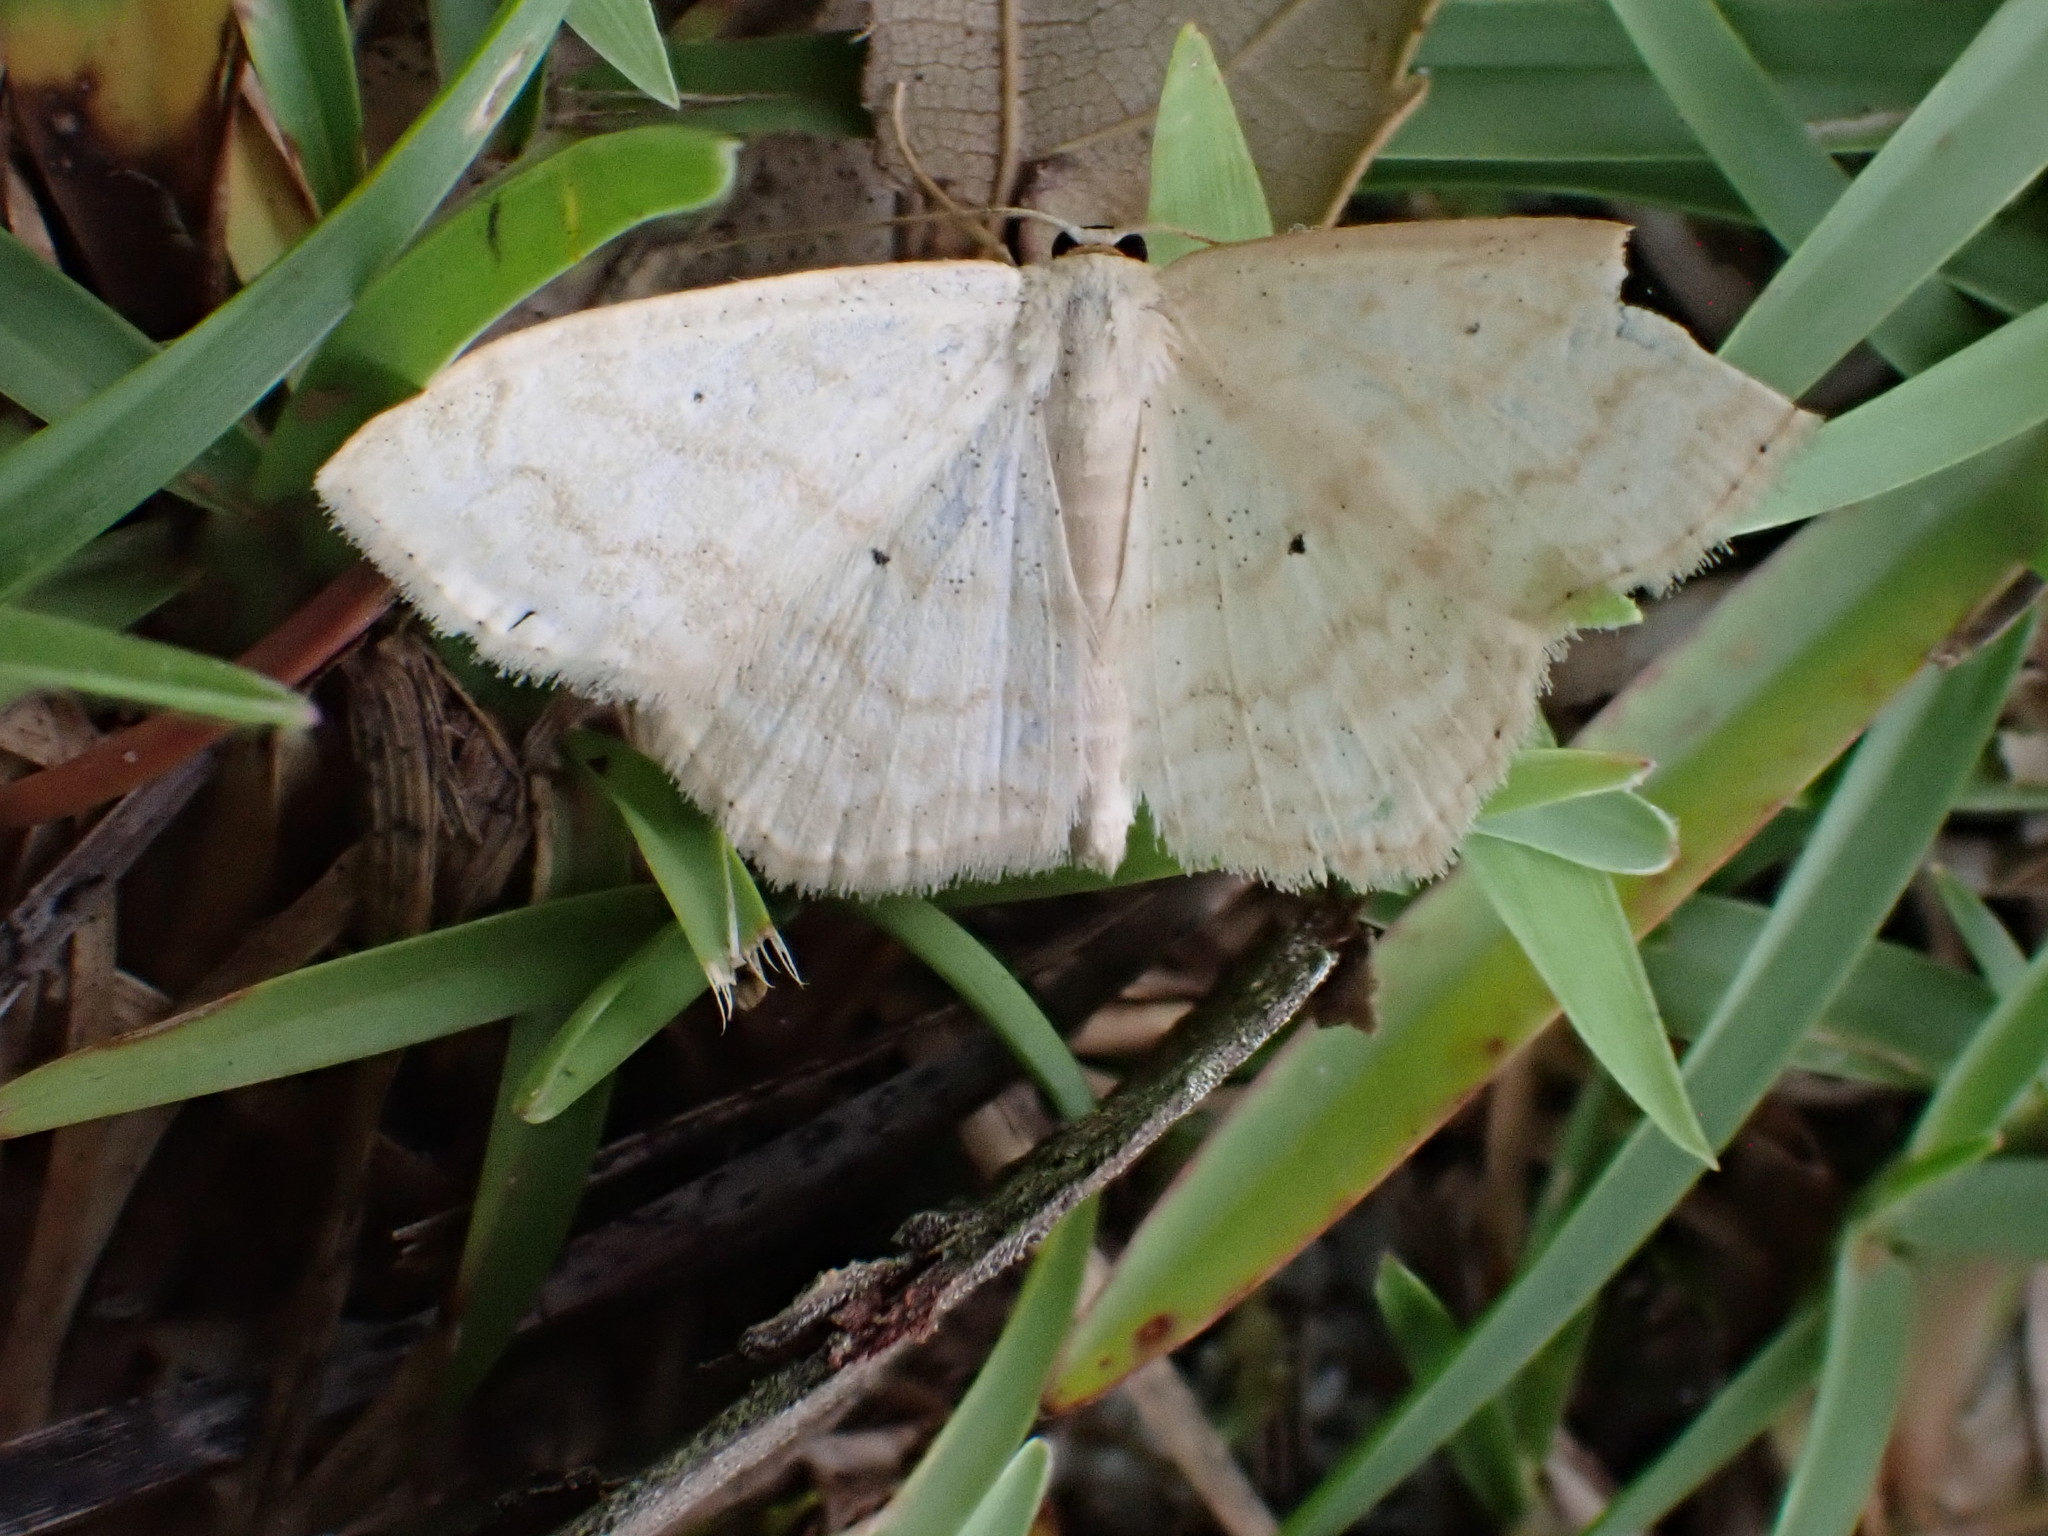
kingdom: Animalia
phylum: Arthropoda
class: Insecta
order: Lepidoptera
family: Geometridae
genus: Scopula
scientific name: Scopula limboundata
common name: Large lace border
